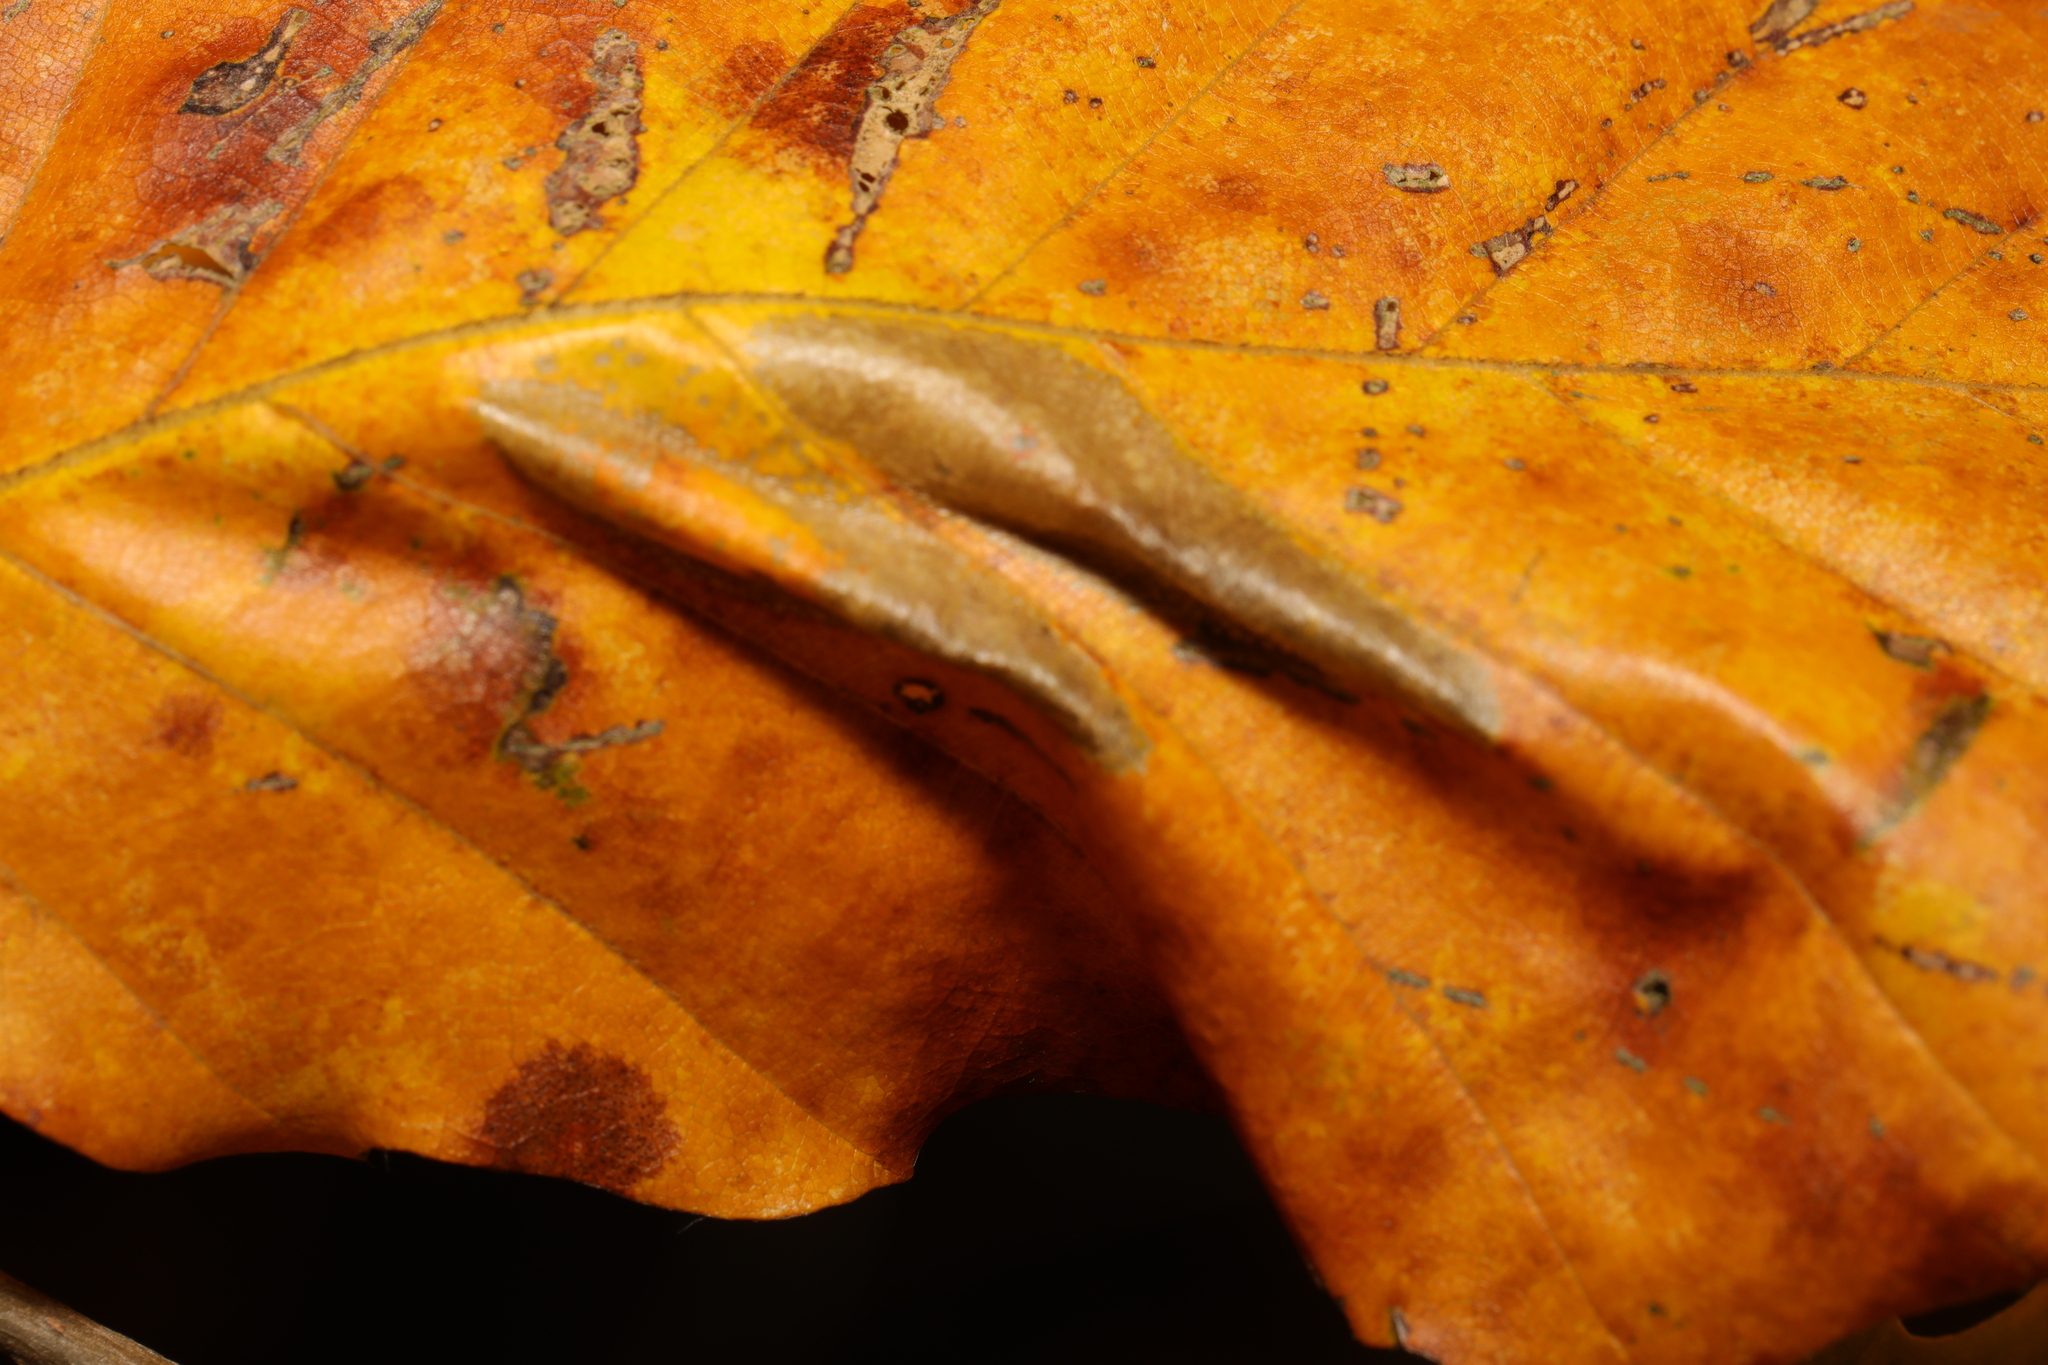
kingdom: Animalia
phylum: Arthropoda
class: Insecta
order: Lepidoptera
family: Gracillariidae
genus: Phyllonorycter
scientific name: Phyllonorycter maestingella
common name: Beech midget
